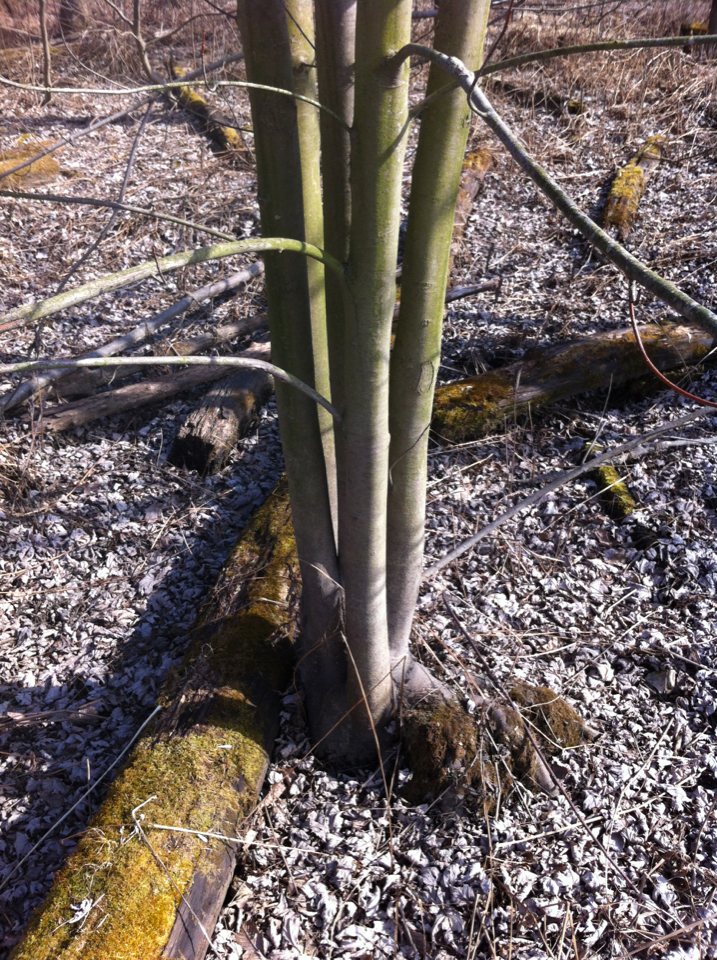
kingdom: Plantae
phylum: Tracheophyta
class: Magnoliopsida
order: Sapindales
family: Sapindaceae
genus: Acer
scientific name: Acer rubrum
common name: Red maple
